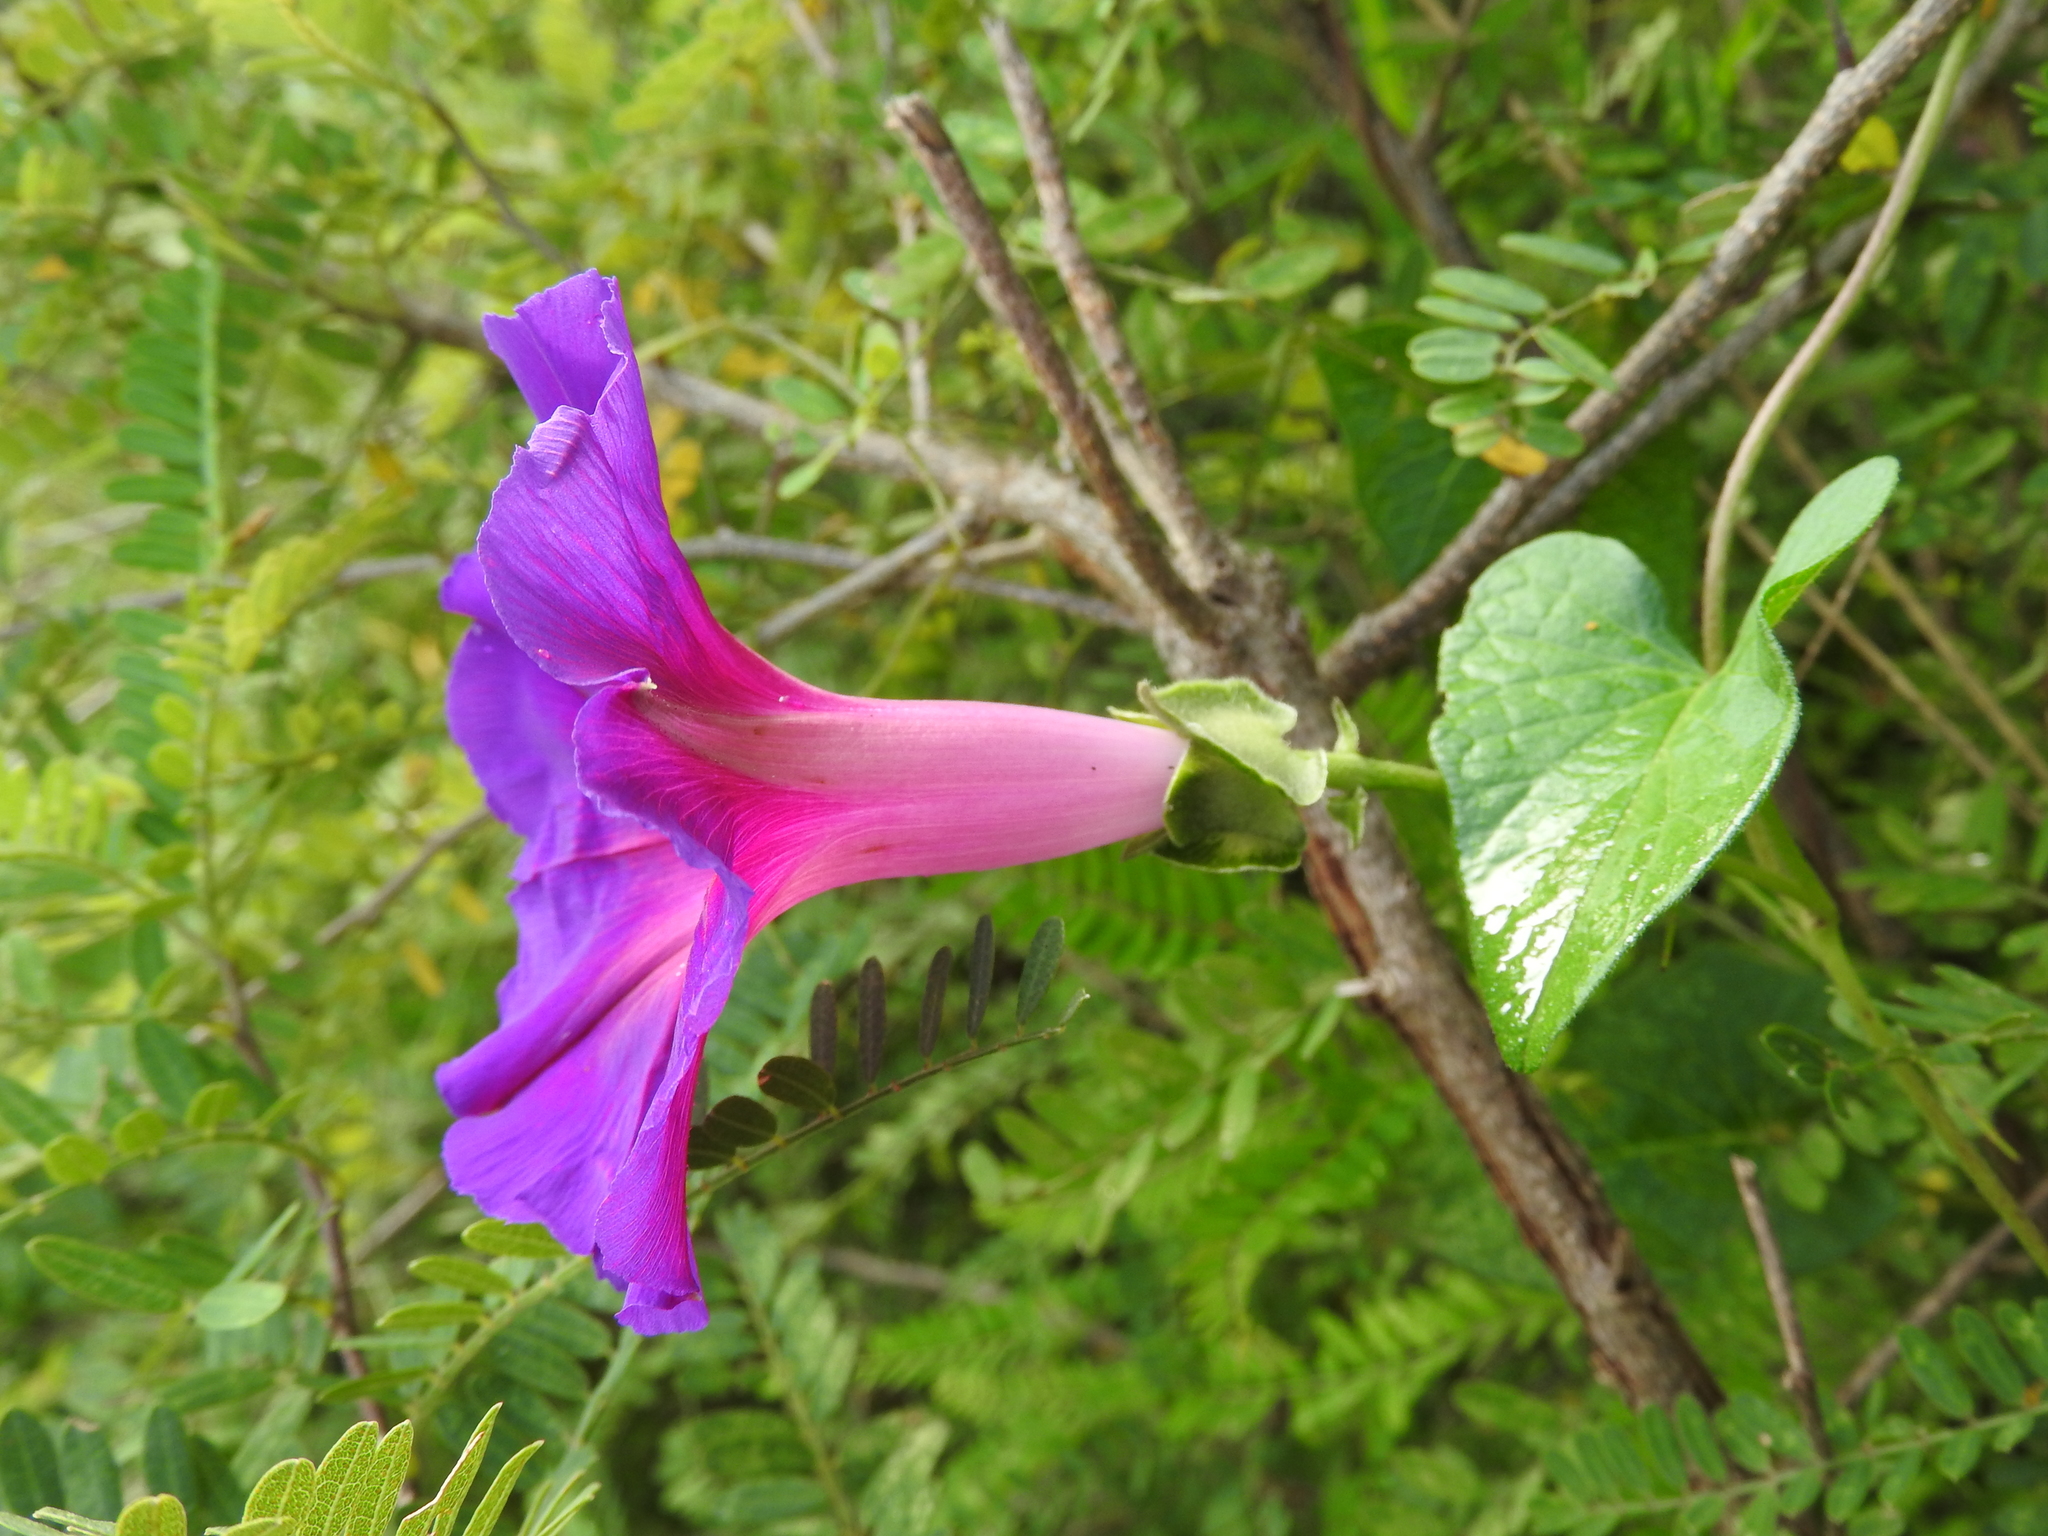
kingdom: Plantae
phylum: Tracheophyta
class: Magnoliopsida
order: Solanales
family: Convolvulaceae
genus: Ipomoea
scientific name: Ipomoea decasperma
